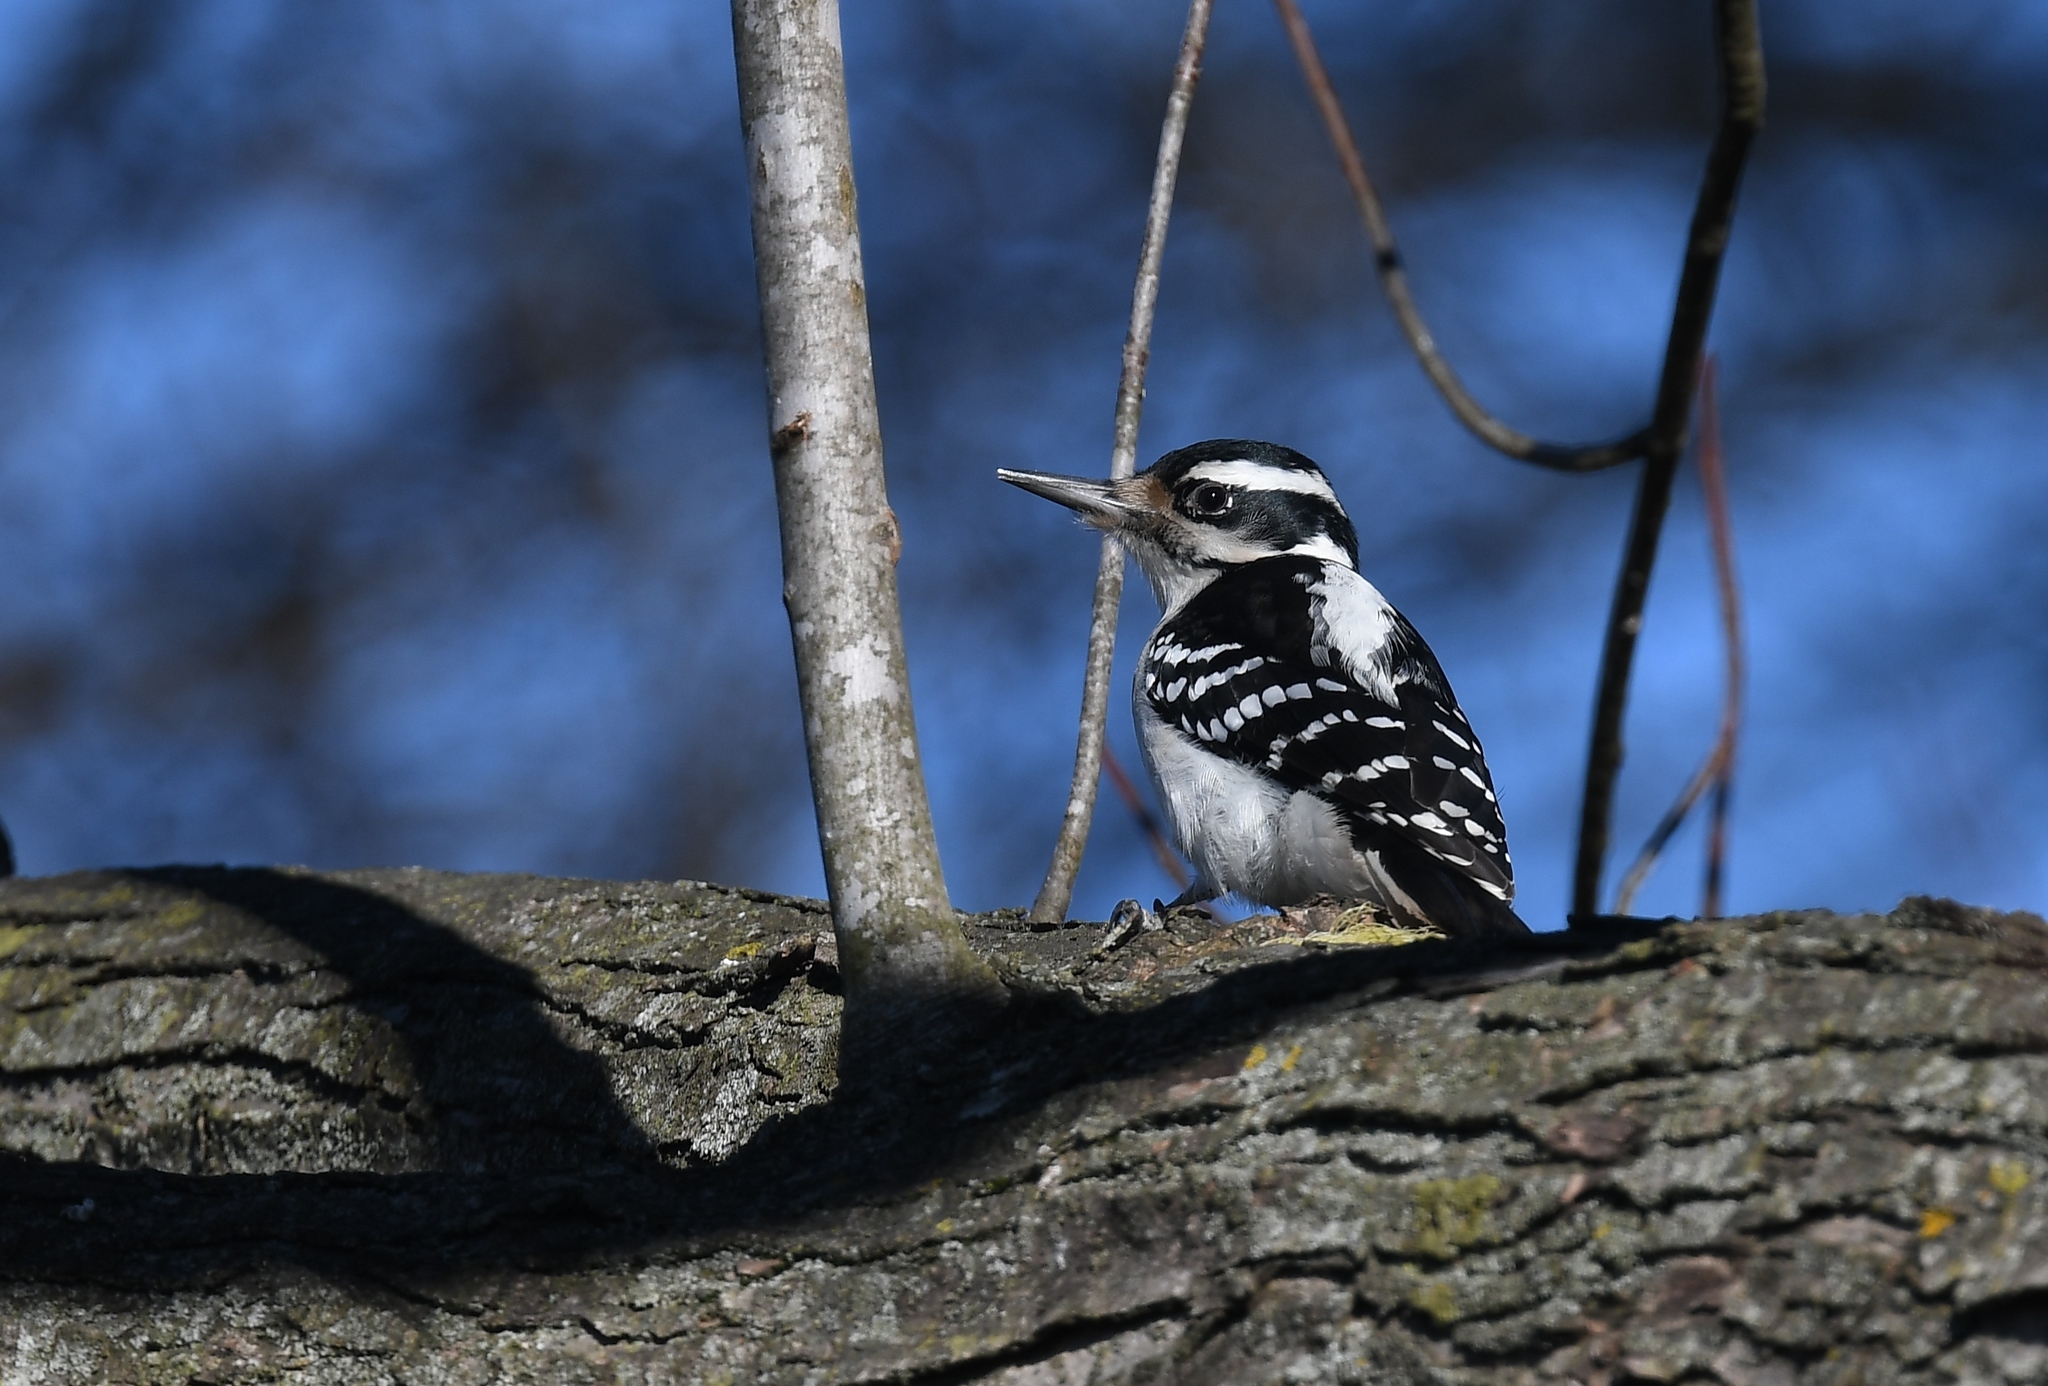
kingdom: Animalia
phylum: Chordata
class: Aves
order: Piciformes
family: Picidae
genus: Leuconotopicus
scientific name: Leuconotopicus villosus
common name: Hairy woodpecker
